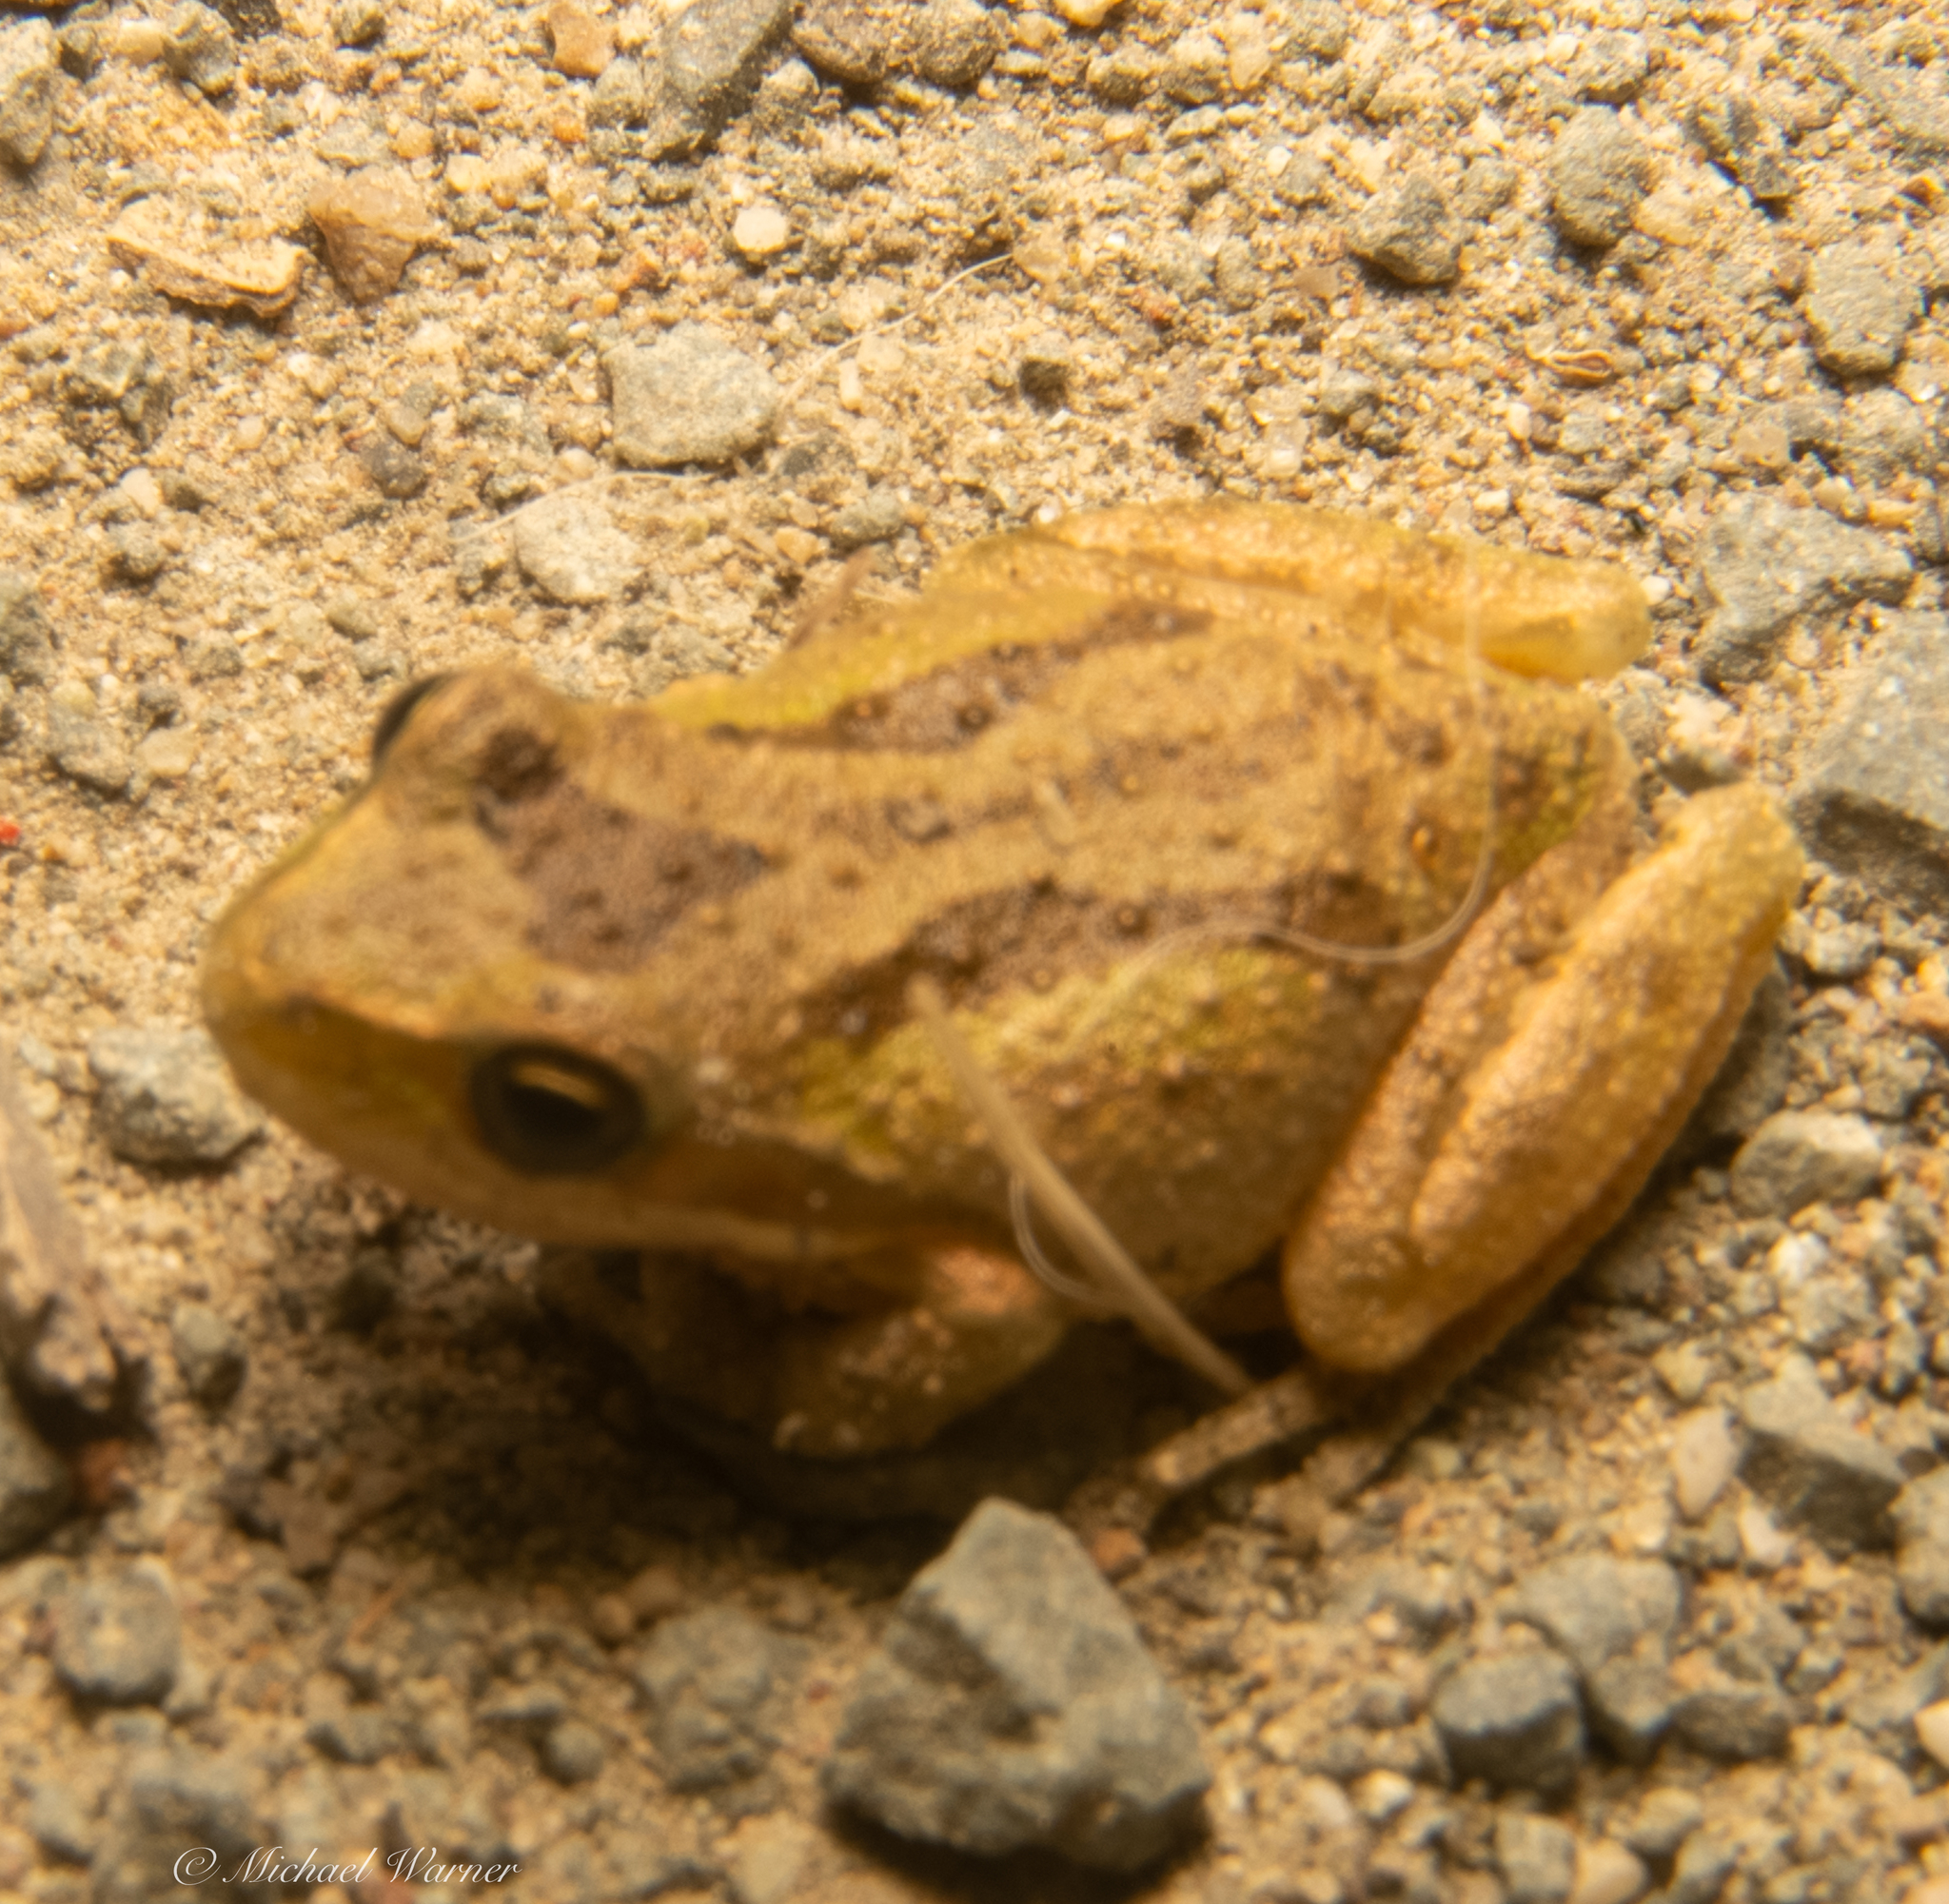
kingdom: Animalia
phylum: Chordata
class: Amphibia
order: Anura
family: Hylidae
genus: Pseudacris
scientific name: Pseudacris regilla
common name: Pacific chorus frog
